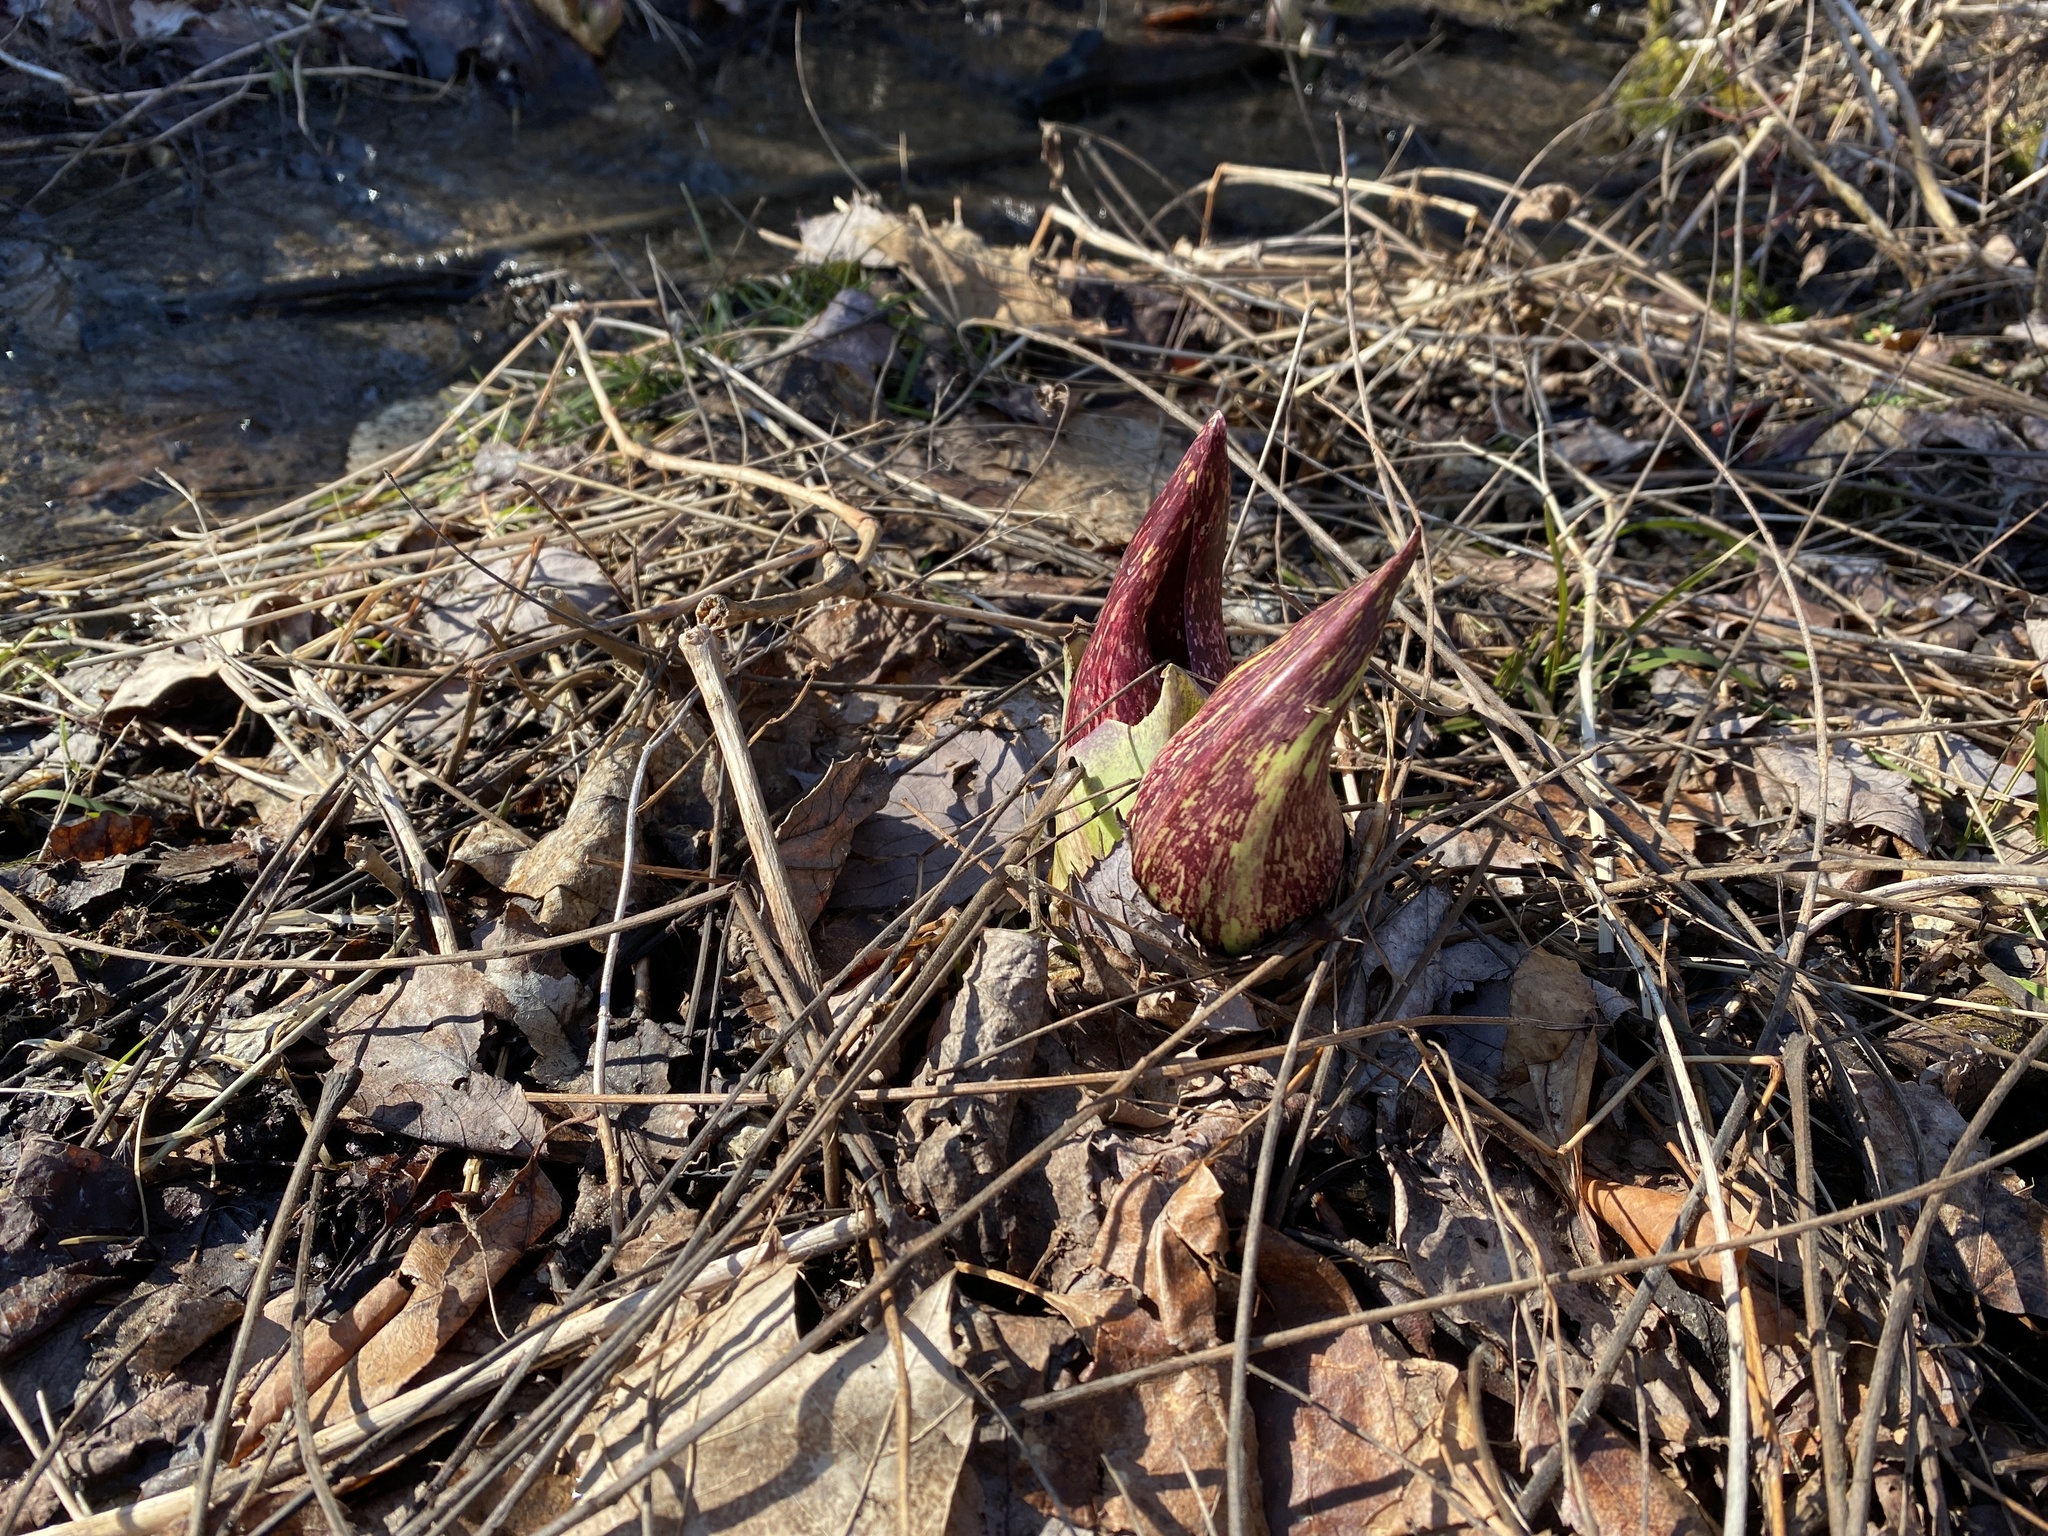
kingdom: Plantae
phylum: Tracheophyta
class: Liliopsida
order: Alismatales
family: Araceae
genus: Symplocarpus
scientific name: Symplocarpus foetidus
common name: Eastern skunk cabbage
